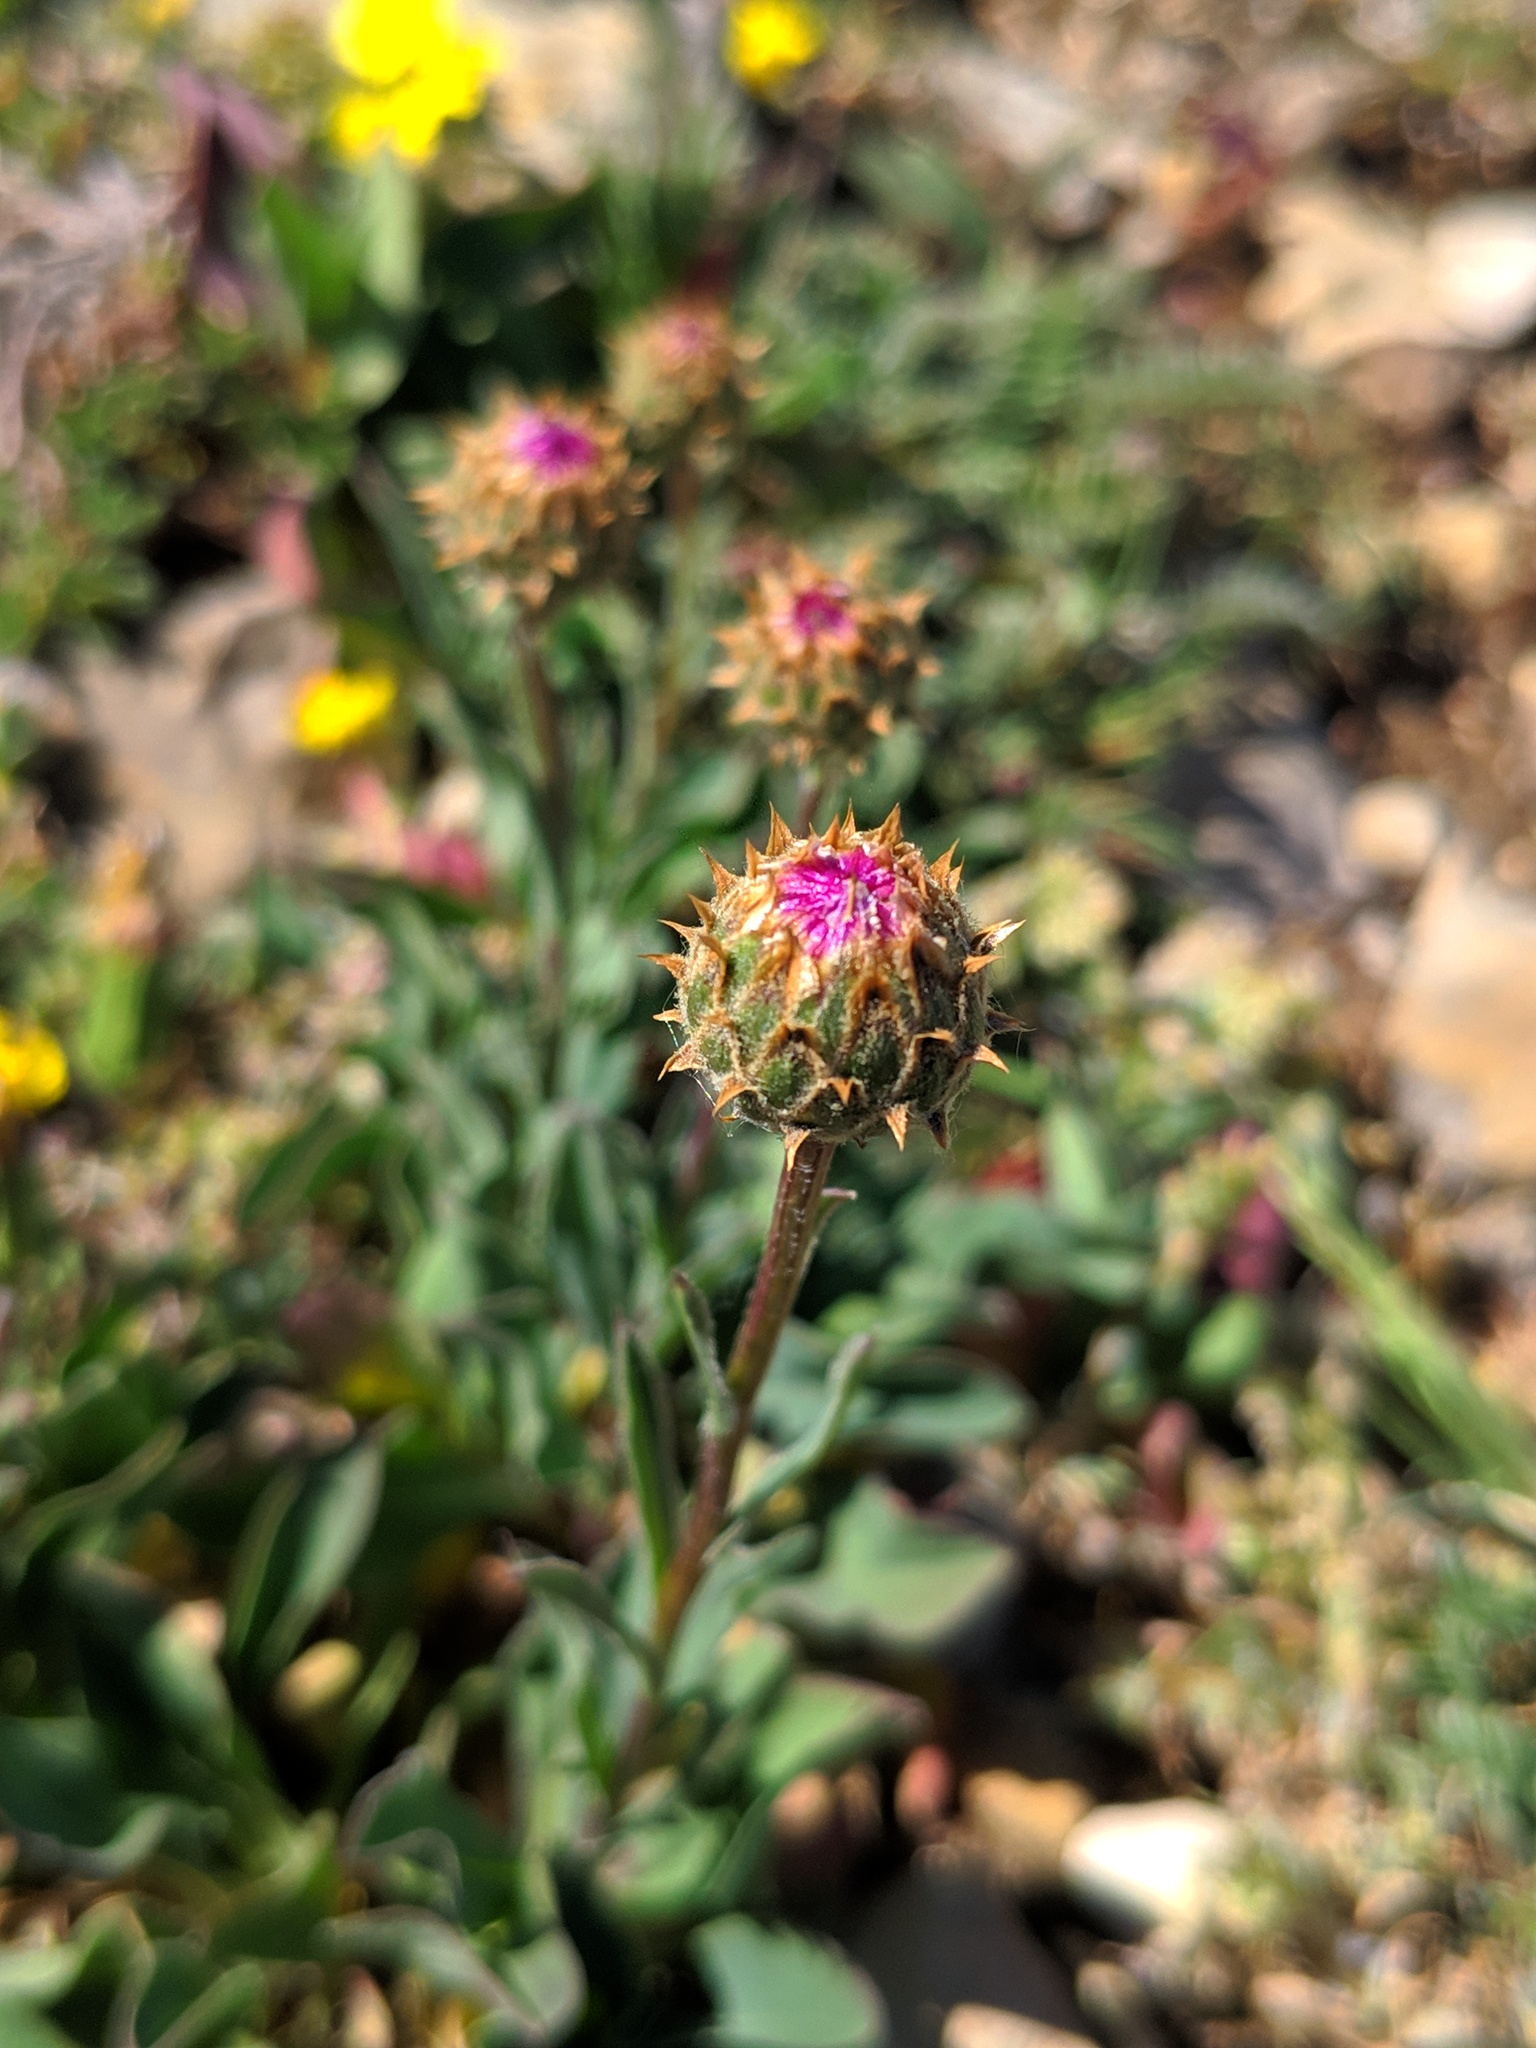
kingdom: Plantae
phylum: Tracheophyta
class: Magnoliopsida
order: Asterales
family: Asteraceae
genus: Klasea
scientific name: Klasea nudicaulis
